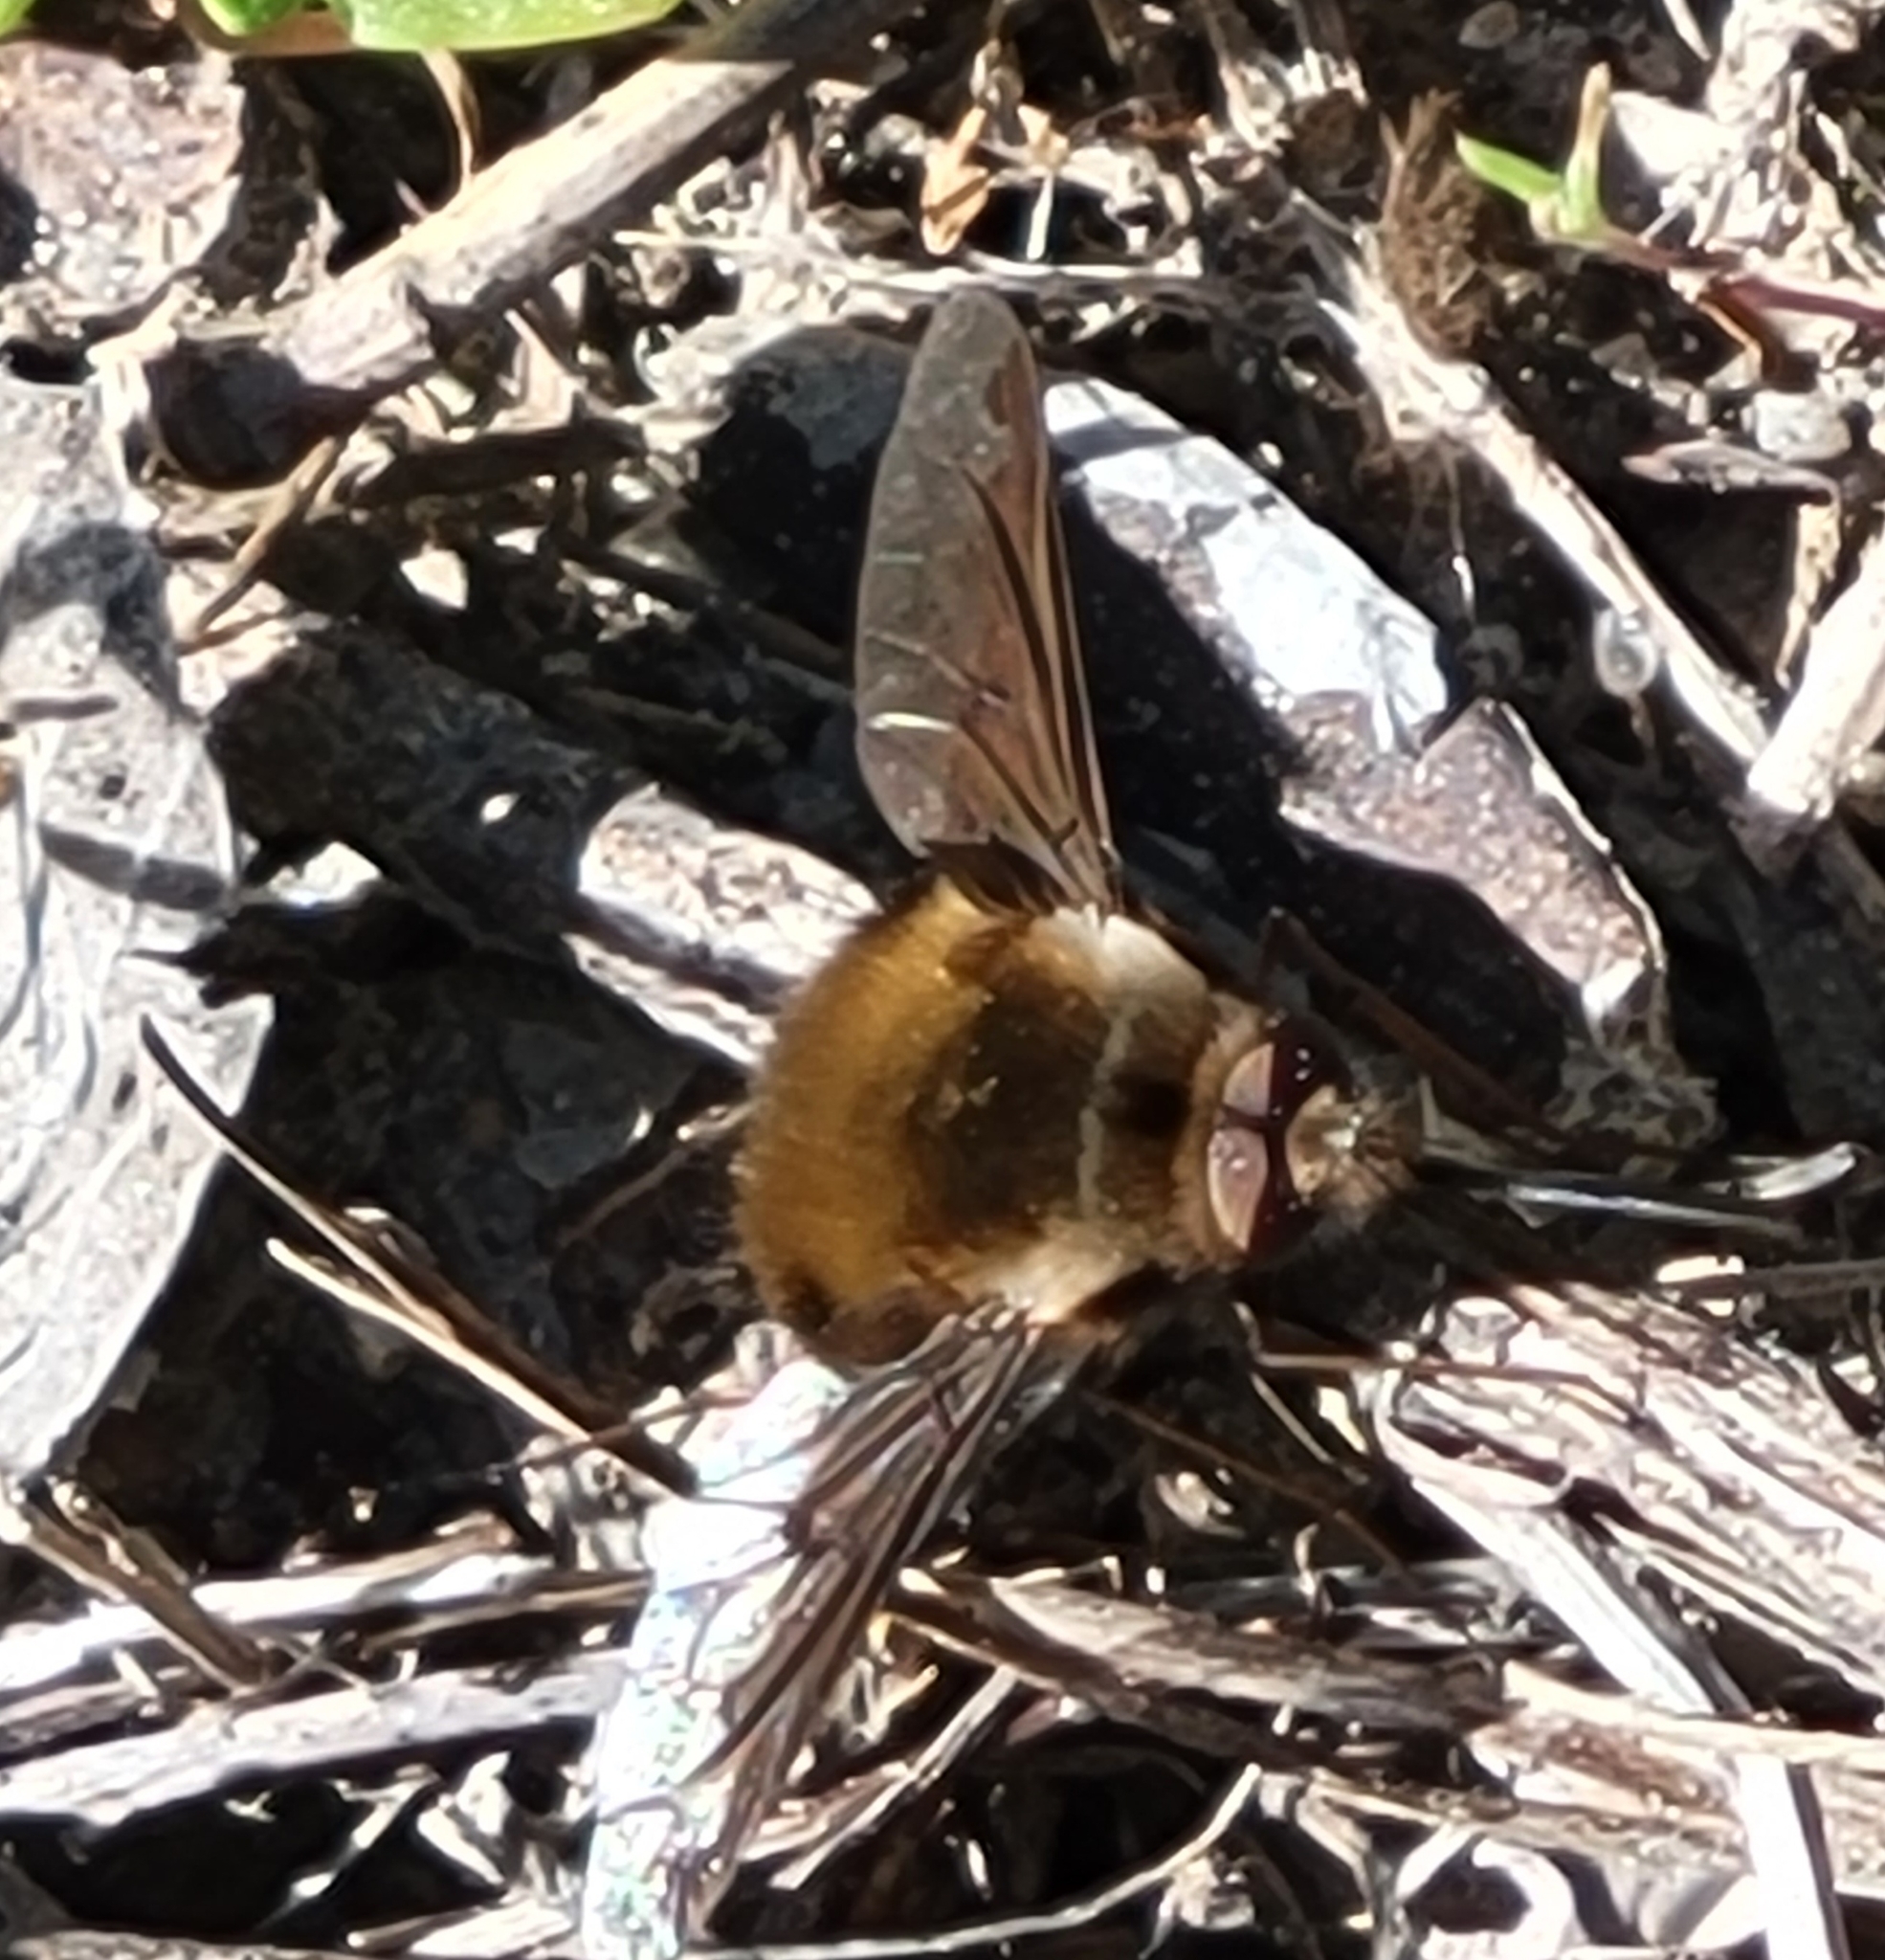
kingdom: Animalia
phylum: Arthropoda
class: Insecta
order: Diptera
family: Bombyliidae
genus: Bombylius
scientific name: Bombylius major
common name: Bee fly
